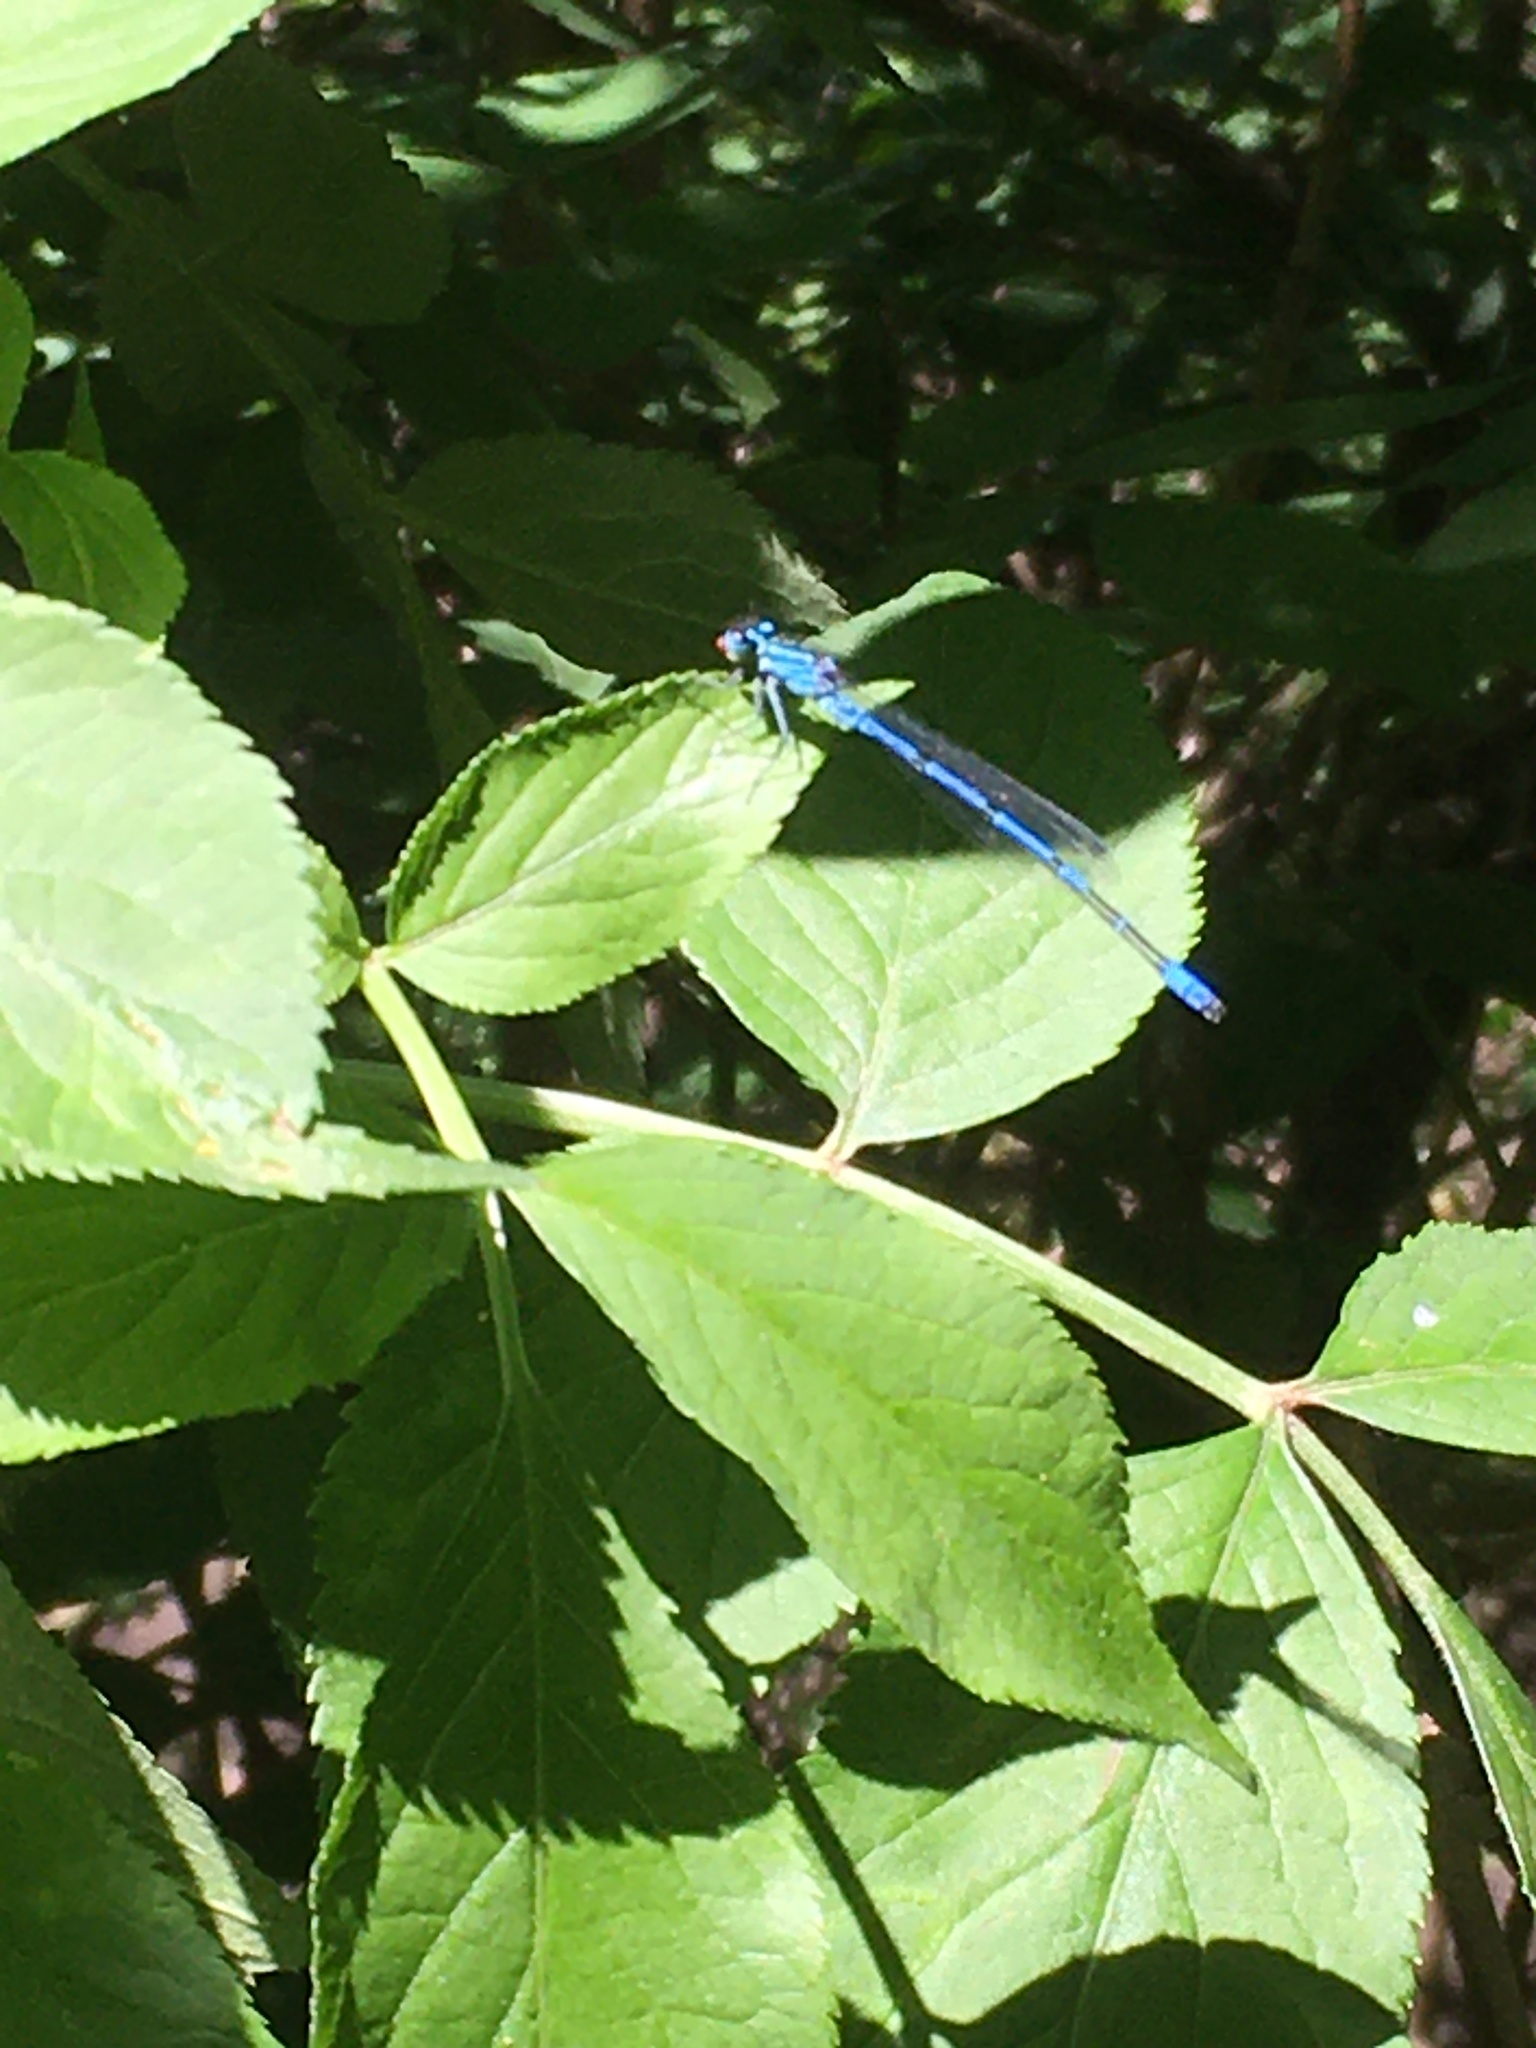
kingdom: Animalia
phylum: Arthropoda
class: Insecta
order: Odonata
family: Coenagrionidae
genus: Coenagrion
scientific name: Coenagrion puella
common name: Azure damselfly
